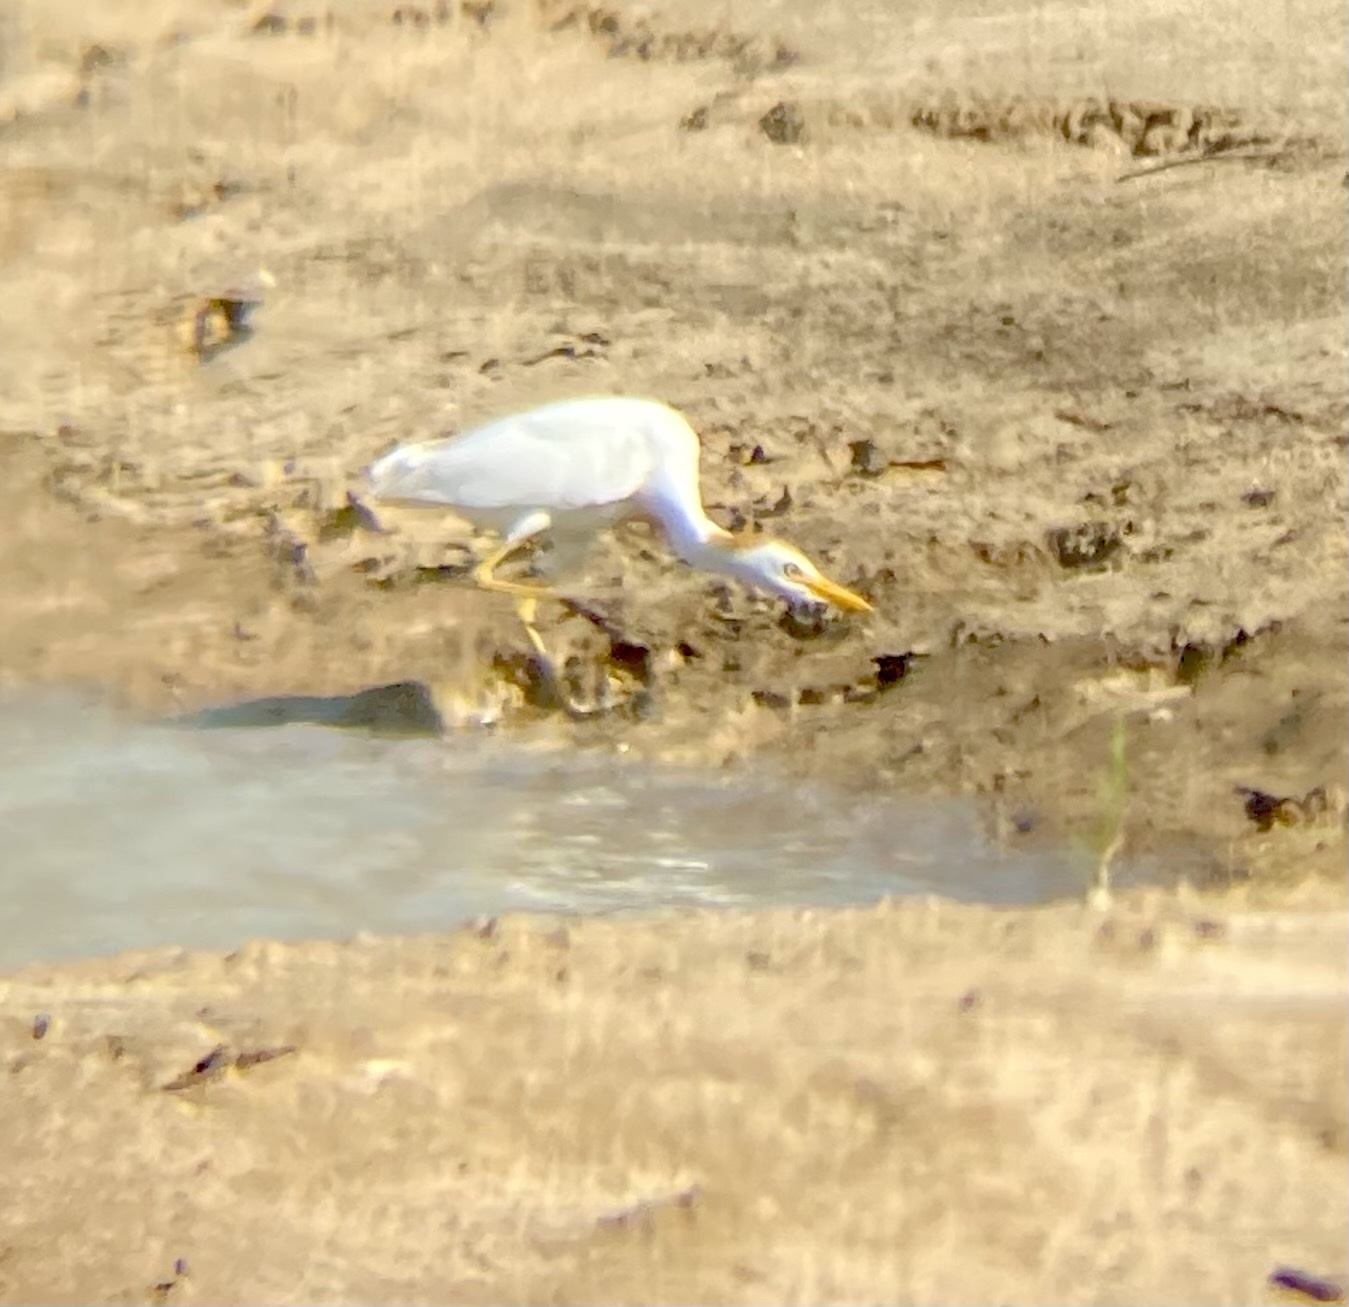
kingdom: Animalia
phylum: Chordata
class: Aves
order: Pelecaniformes
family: Ardeidae
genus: Bubulcus
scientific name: Bubulcus ibis
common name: Cattle egret
